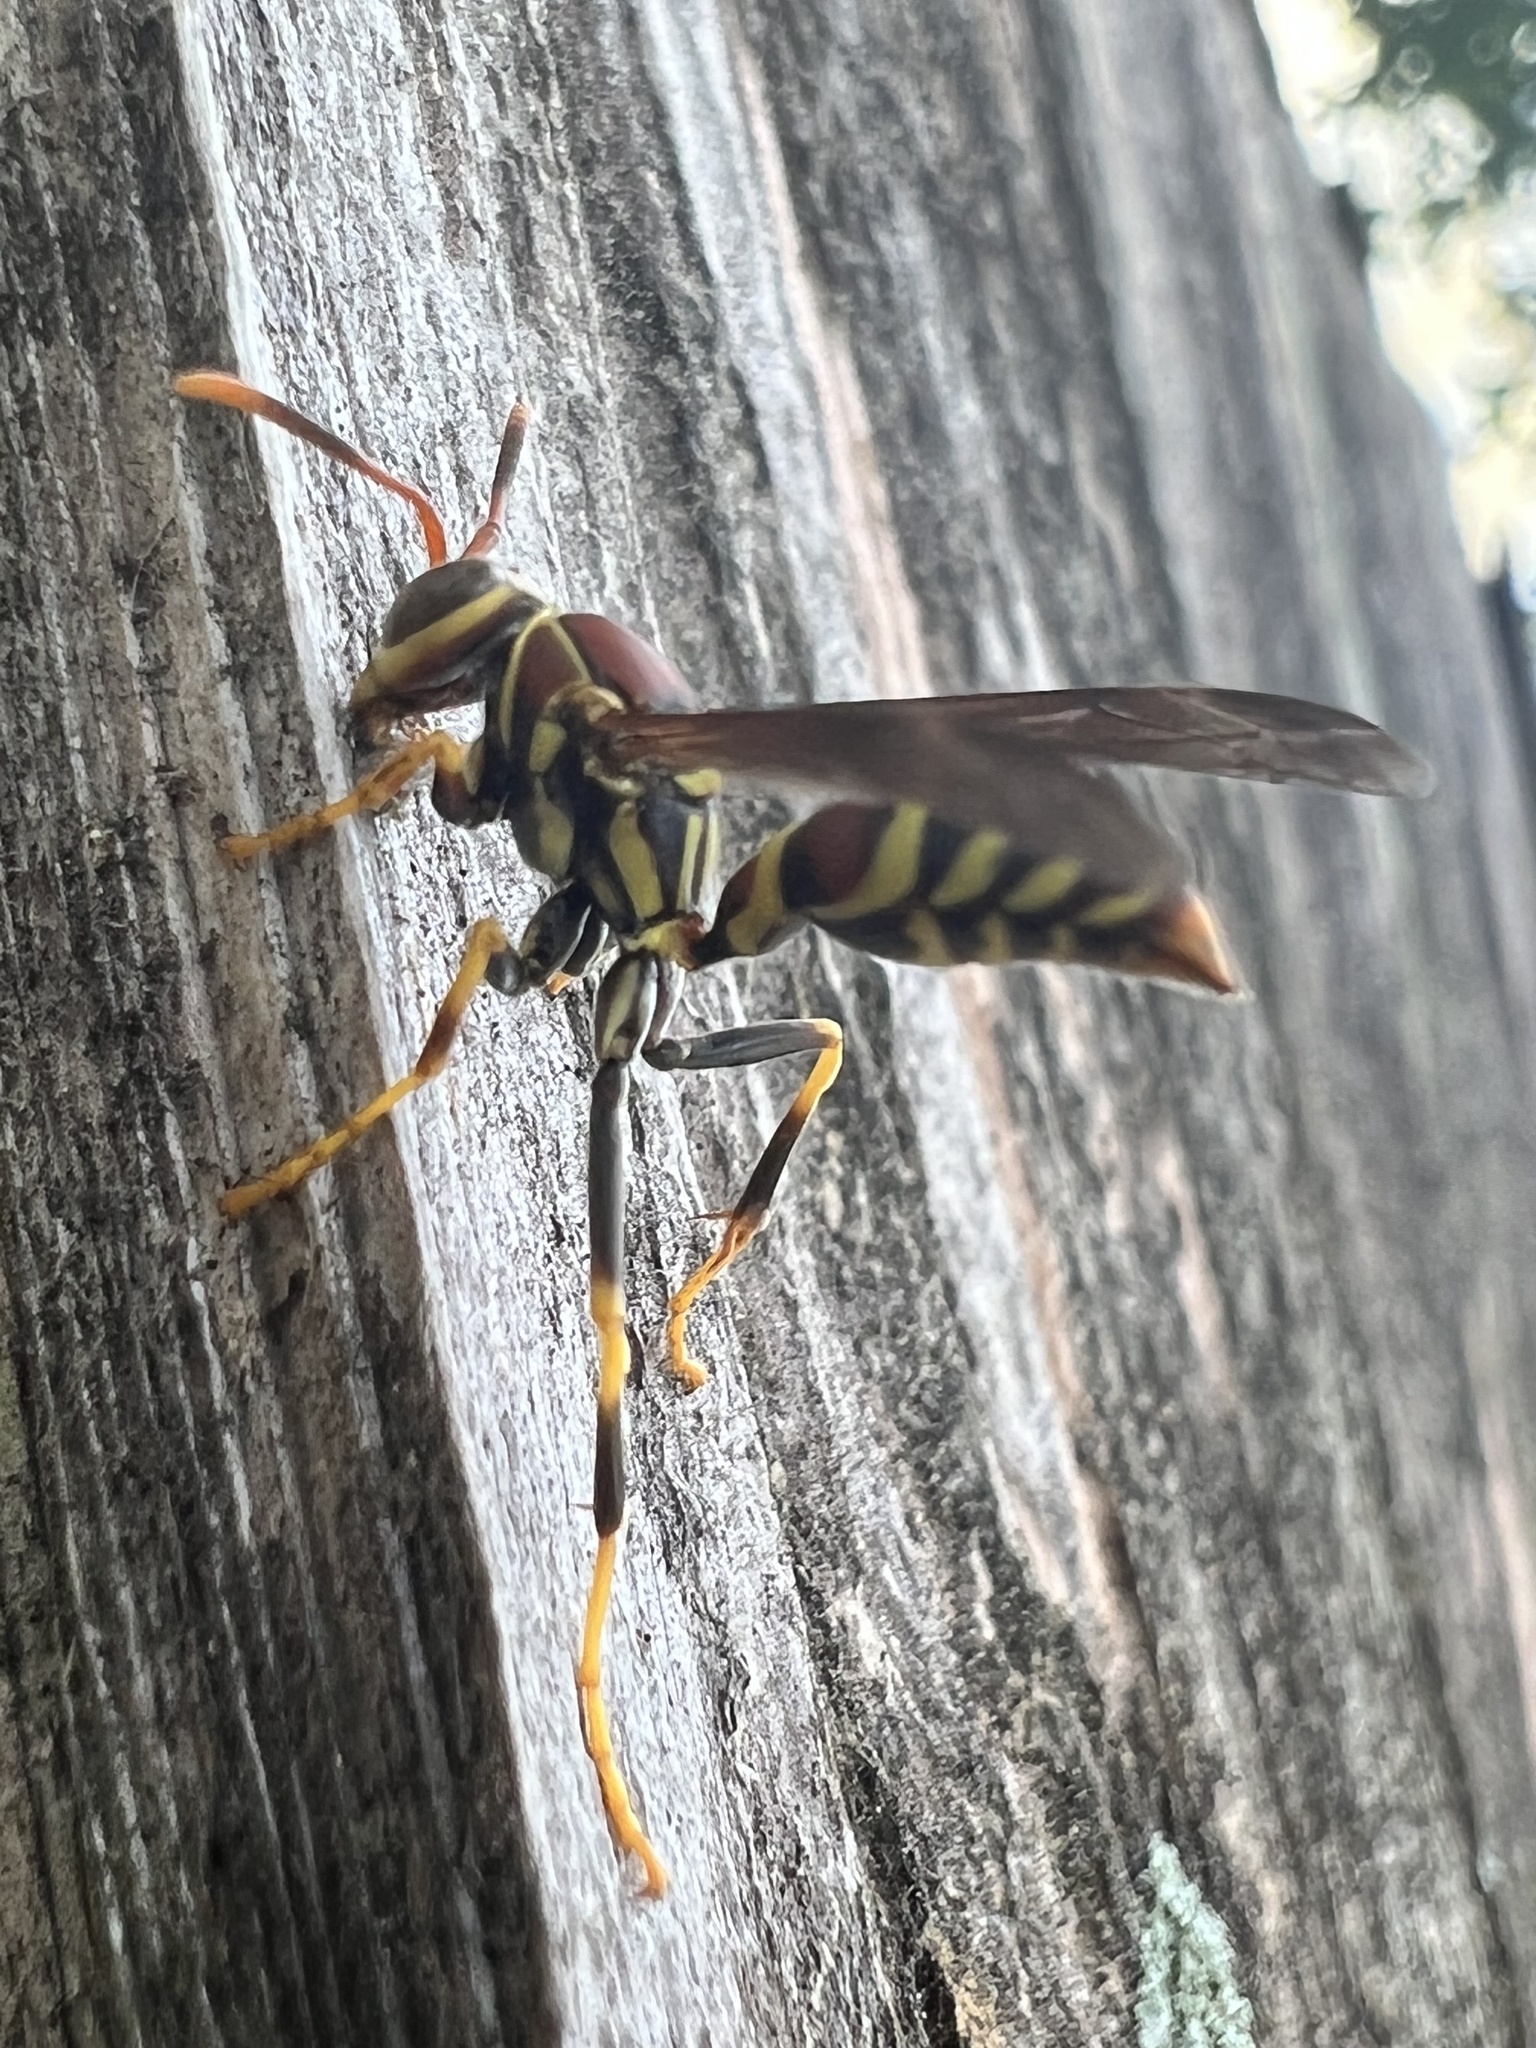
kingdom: Animalia
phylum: Arthropoda
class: Insecta
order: Hymenoptera
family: Eumenidae
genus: Polistes
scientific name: Polistes exclamans
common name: Paper wasp
